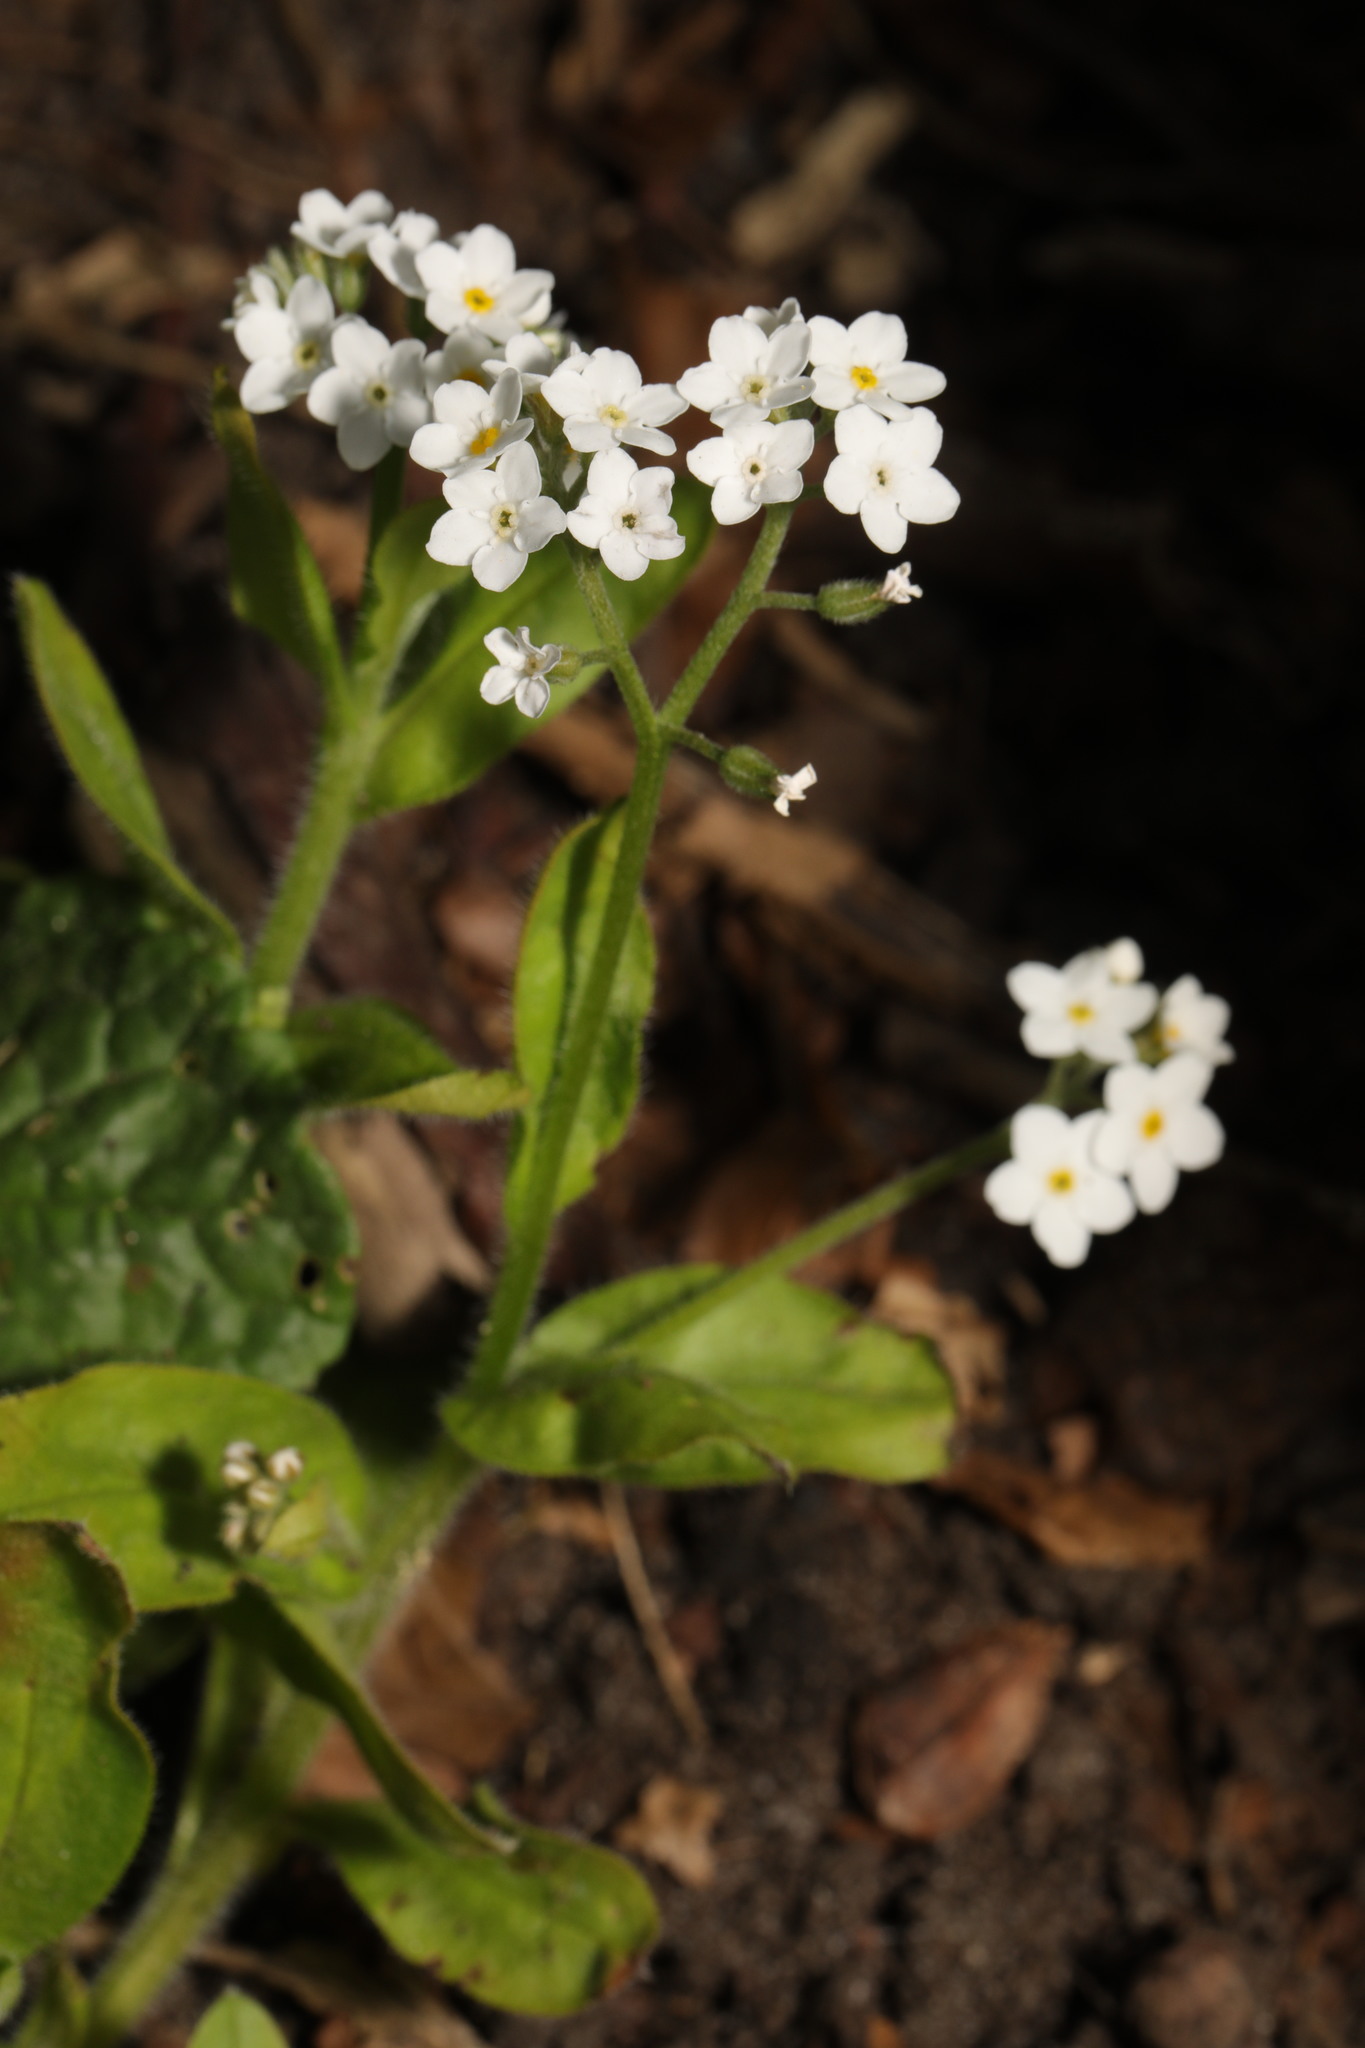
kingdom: Plantae
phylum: Tracheophyta
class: Magnoliopsida
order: Boraginales
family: Boraginaceae
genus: Myosotis
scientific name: Myosotis sylvatica
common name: Wood forget-me-not
